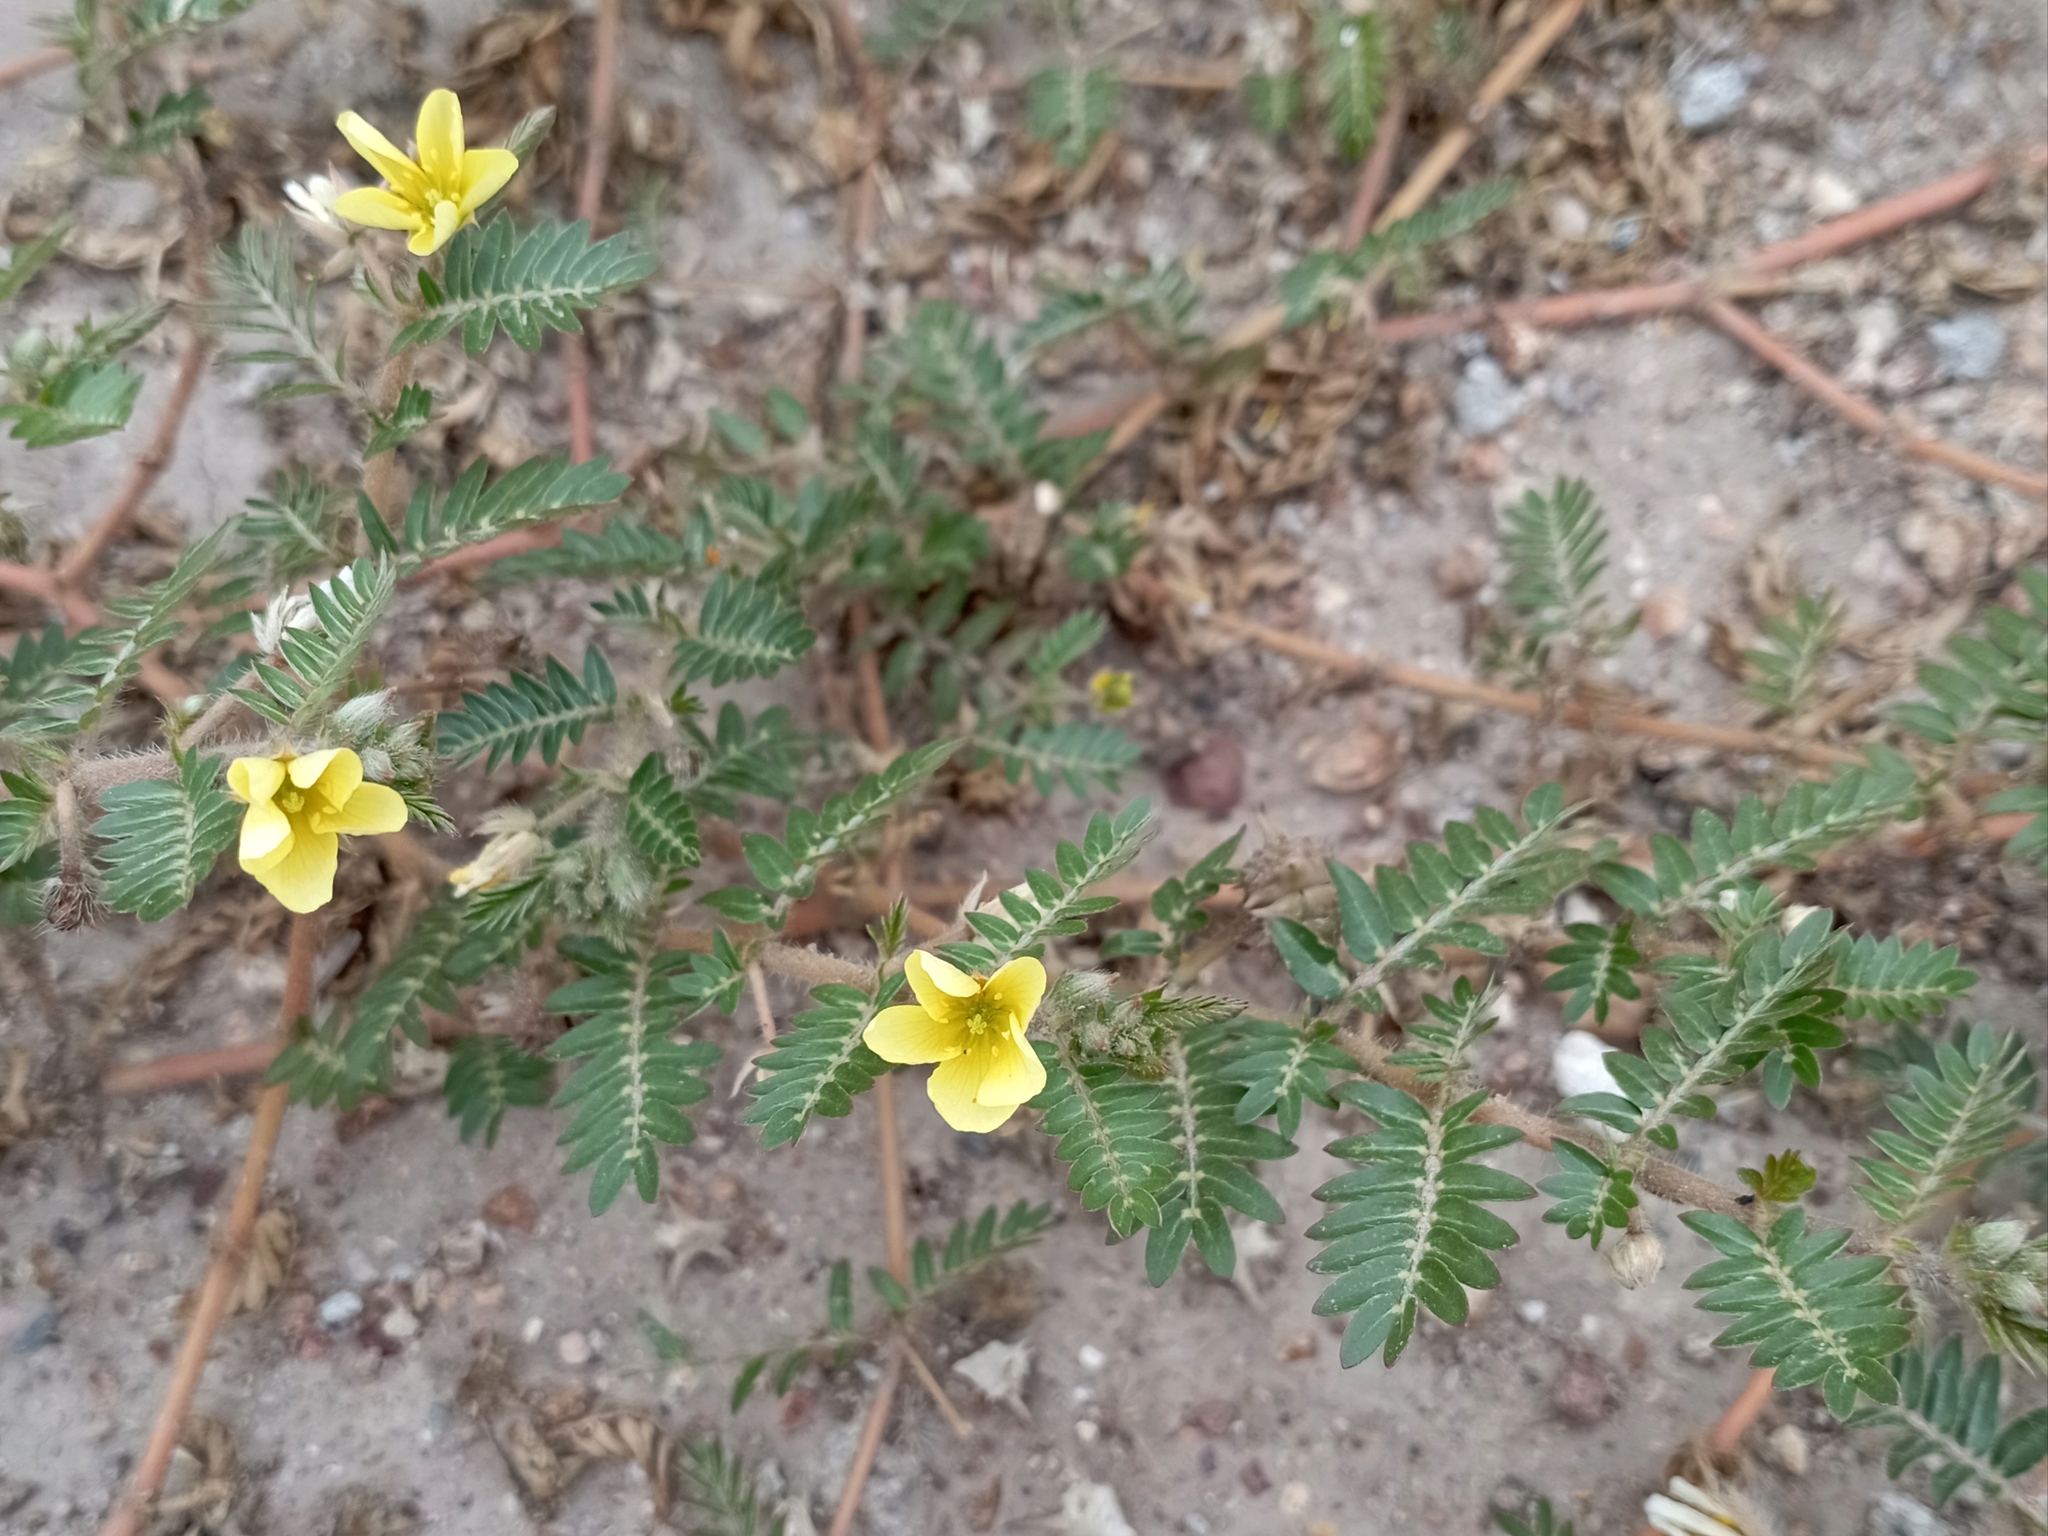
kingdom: Plantae
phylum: Tracheophyta
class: Magnoliopsida
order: Zygophyllales
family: Zygophyllaceae
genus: Tribulus
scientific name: Tribulus terrestris
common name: Puncturevine
